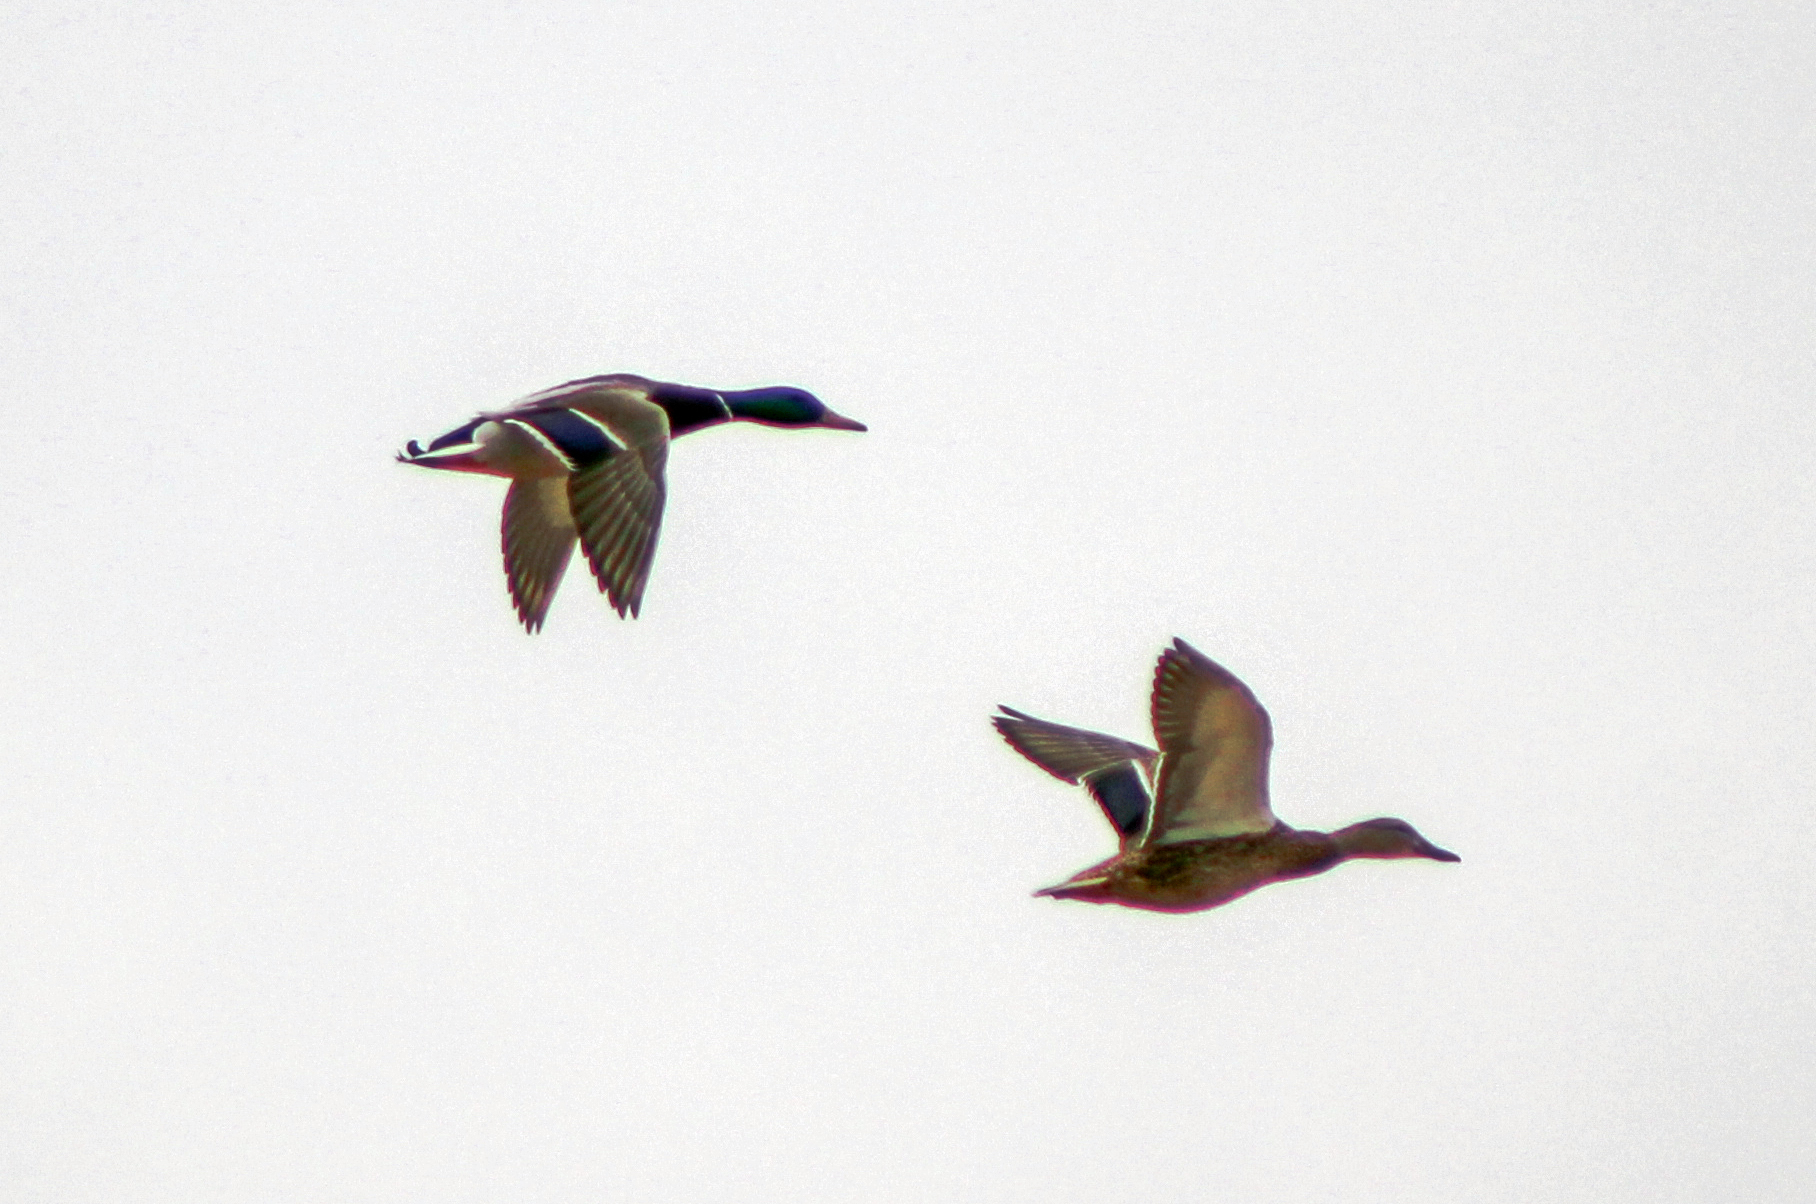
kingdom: Animalia
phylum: Chordata
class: Aves
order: Anseriformes
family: Anatidae
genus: Anas
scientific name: Anas platyrhynchos
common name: Mallard
